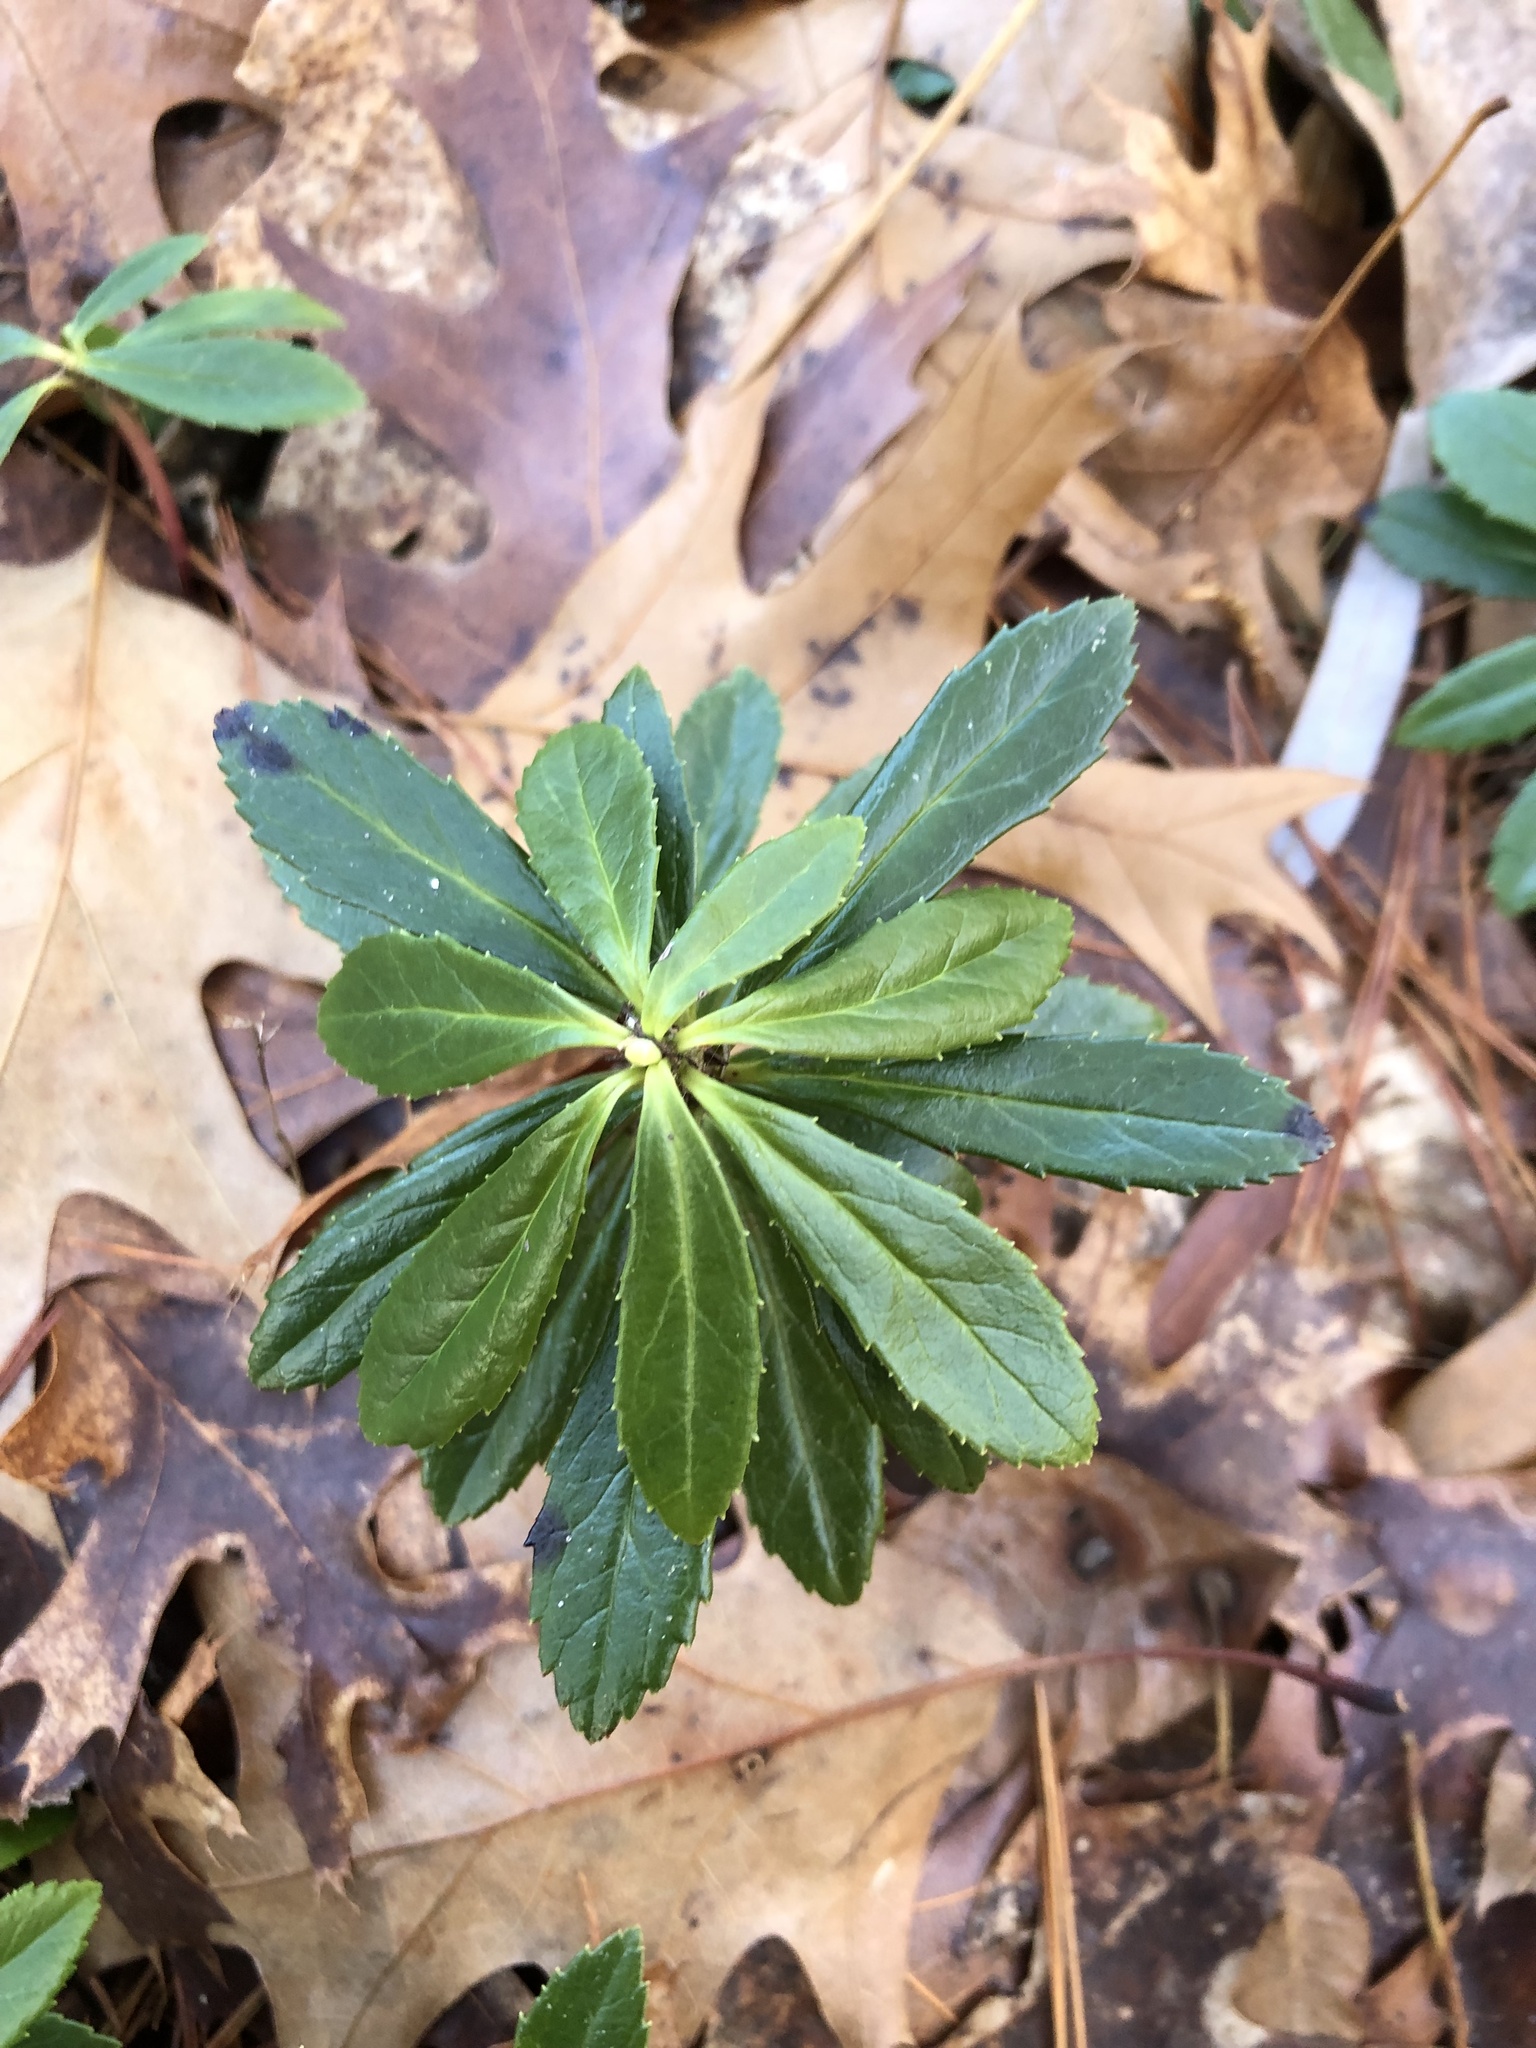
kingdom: Plantae
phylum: Tracheophyta
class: Magnoliopsida
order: Ericales
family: Ericaceae
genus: Chimaphila
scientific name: Chimaphila umbellata
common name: Pipsissewa
